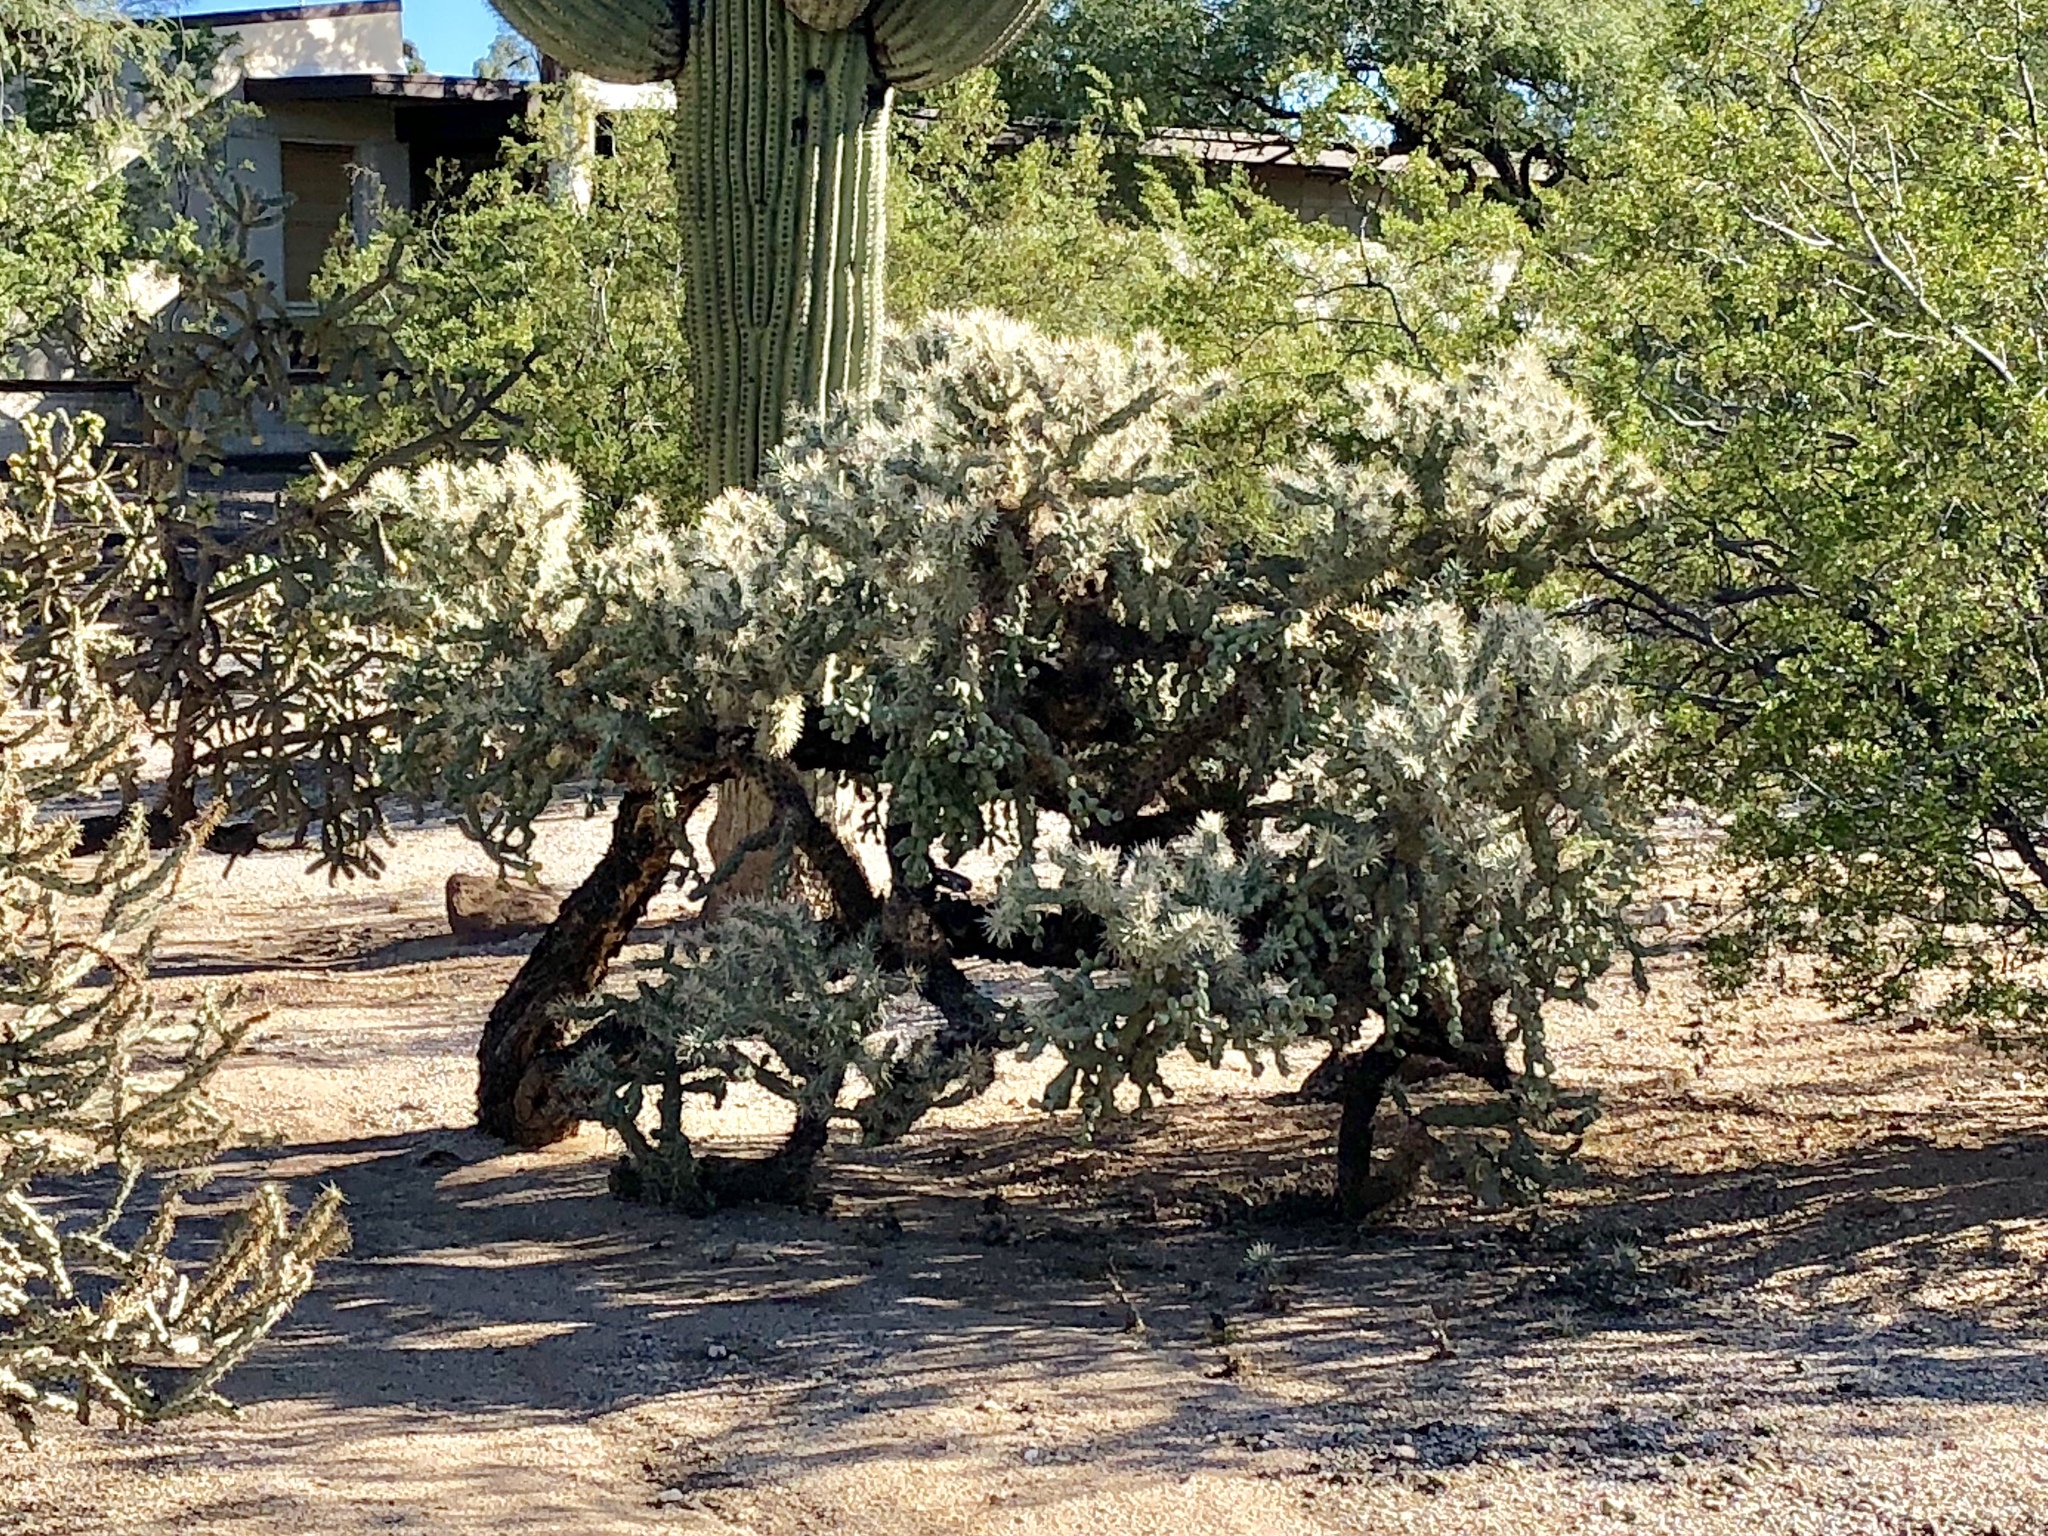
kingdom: Plantae
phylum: Tracheophyta
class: Magnoliopsida
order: Caryophyllales
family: Cactaceae
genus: Cylindropuntia
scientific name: Cylindropuntia fulgida
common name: Jumping cholla
